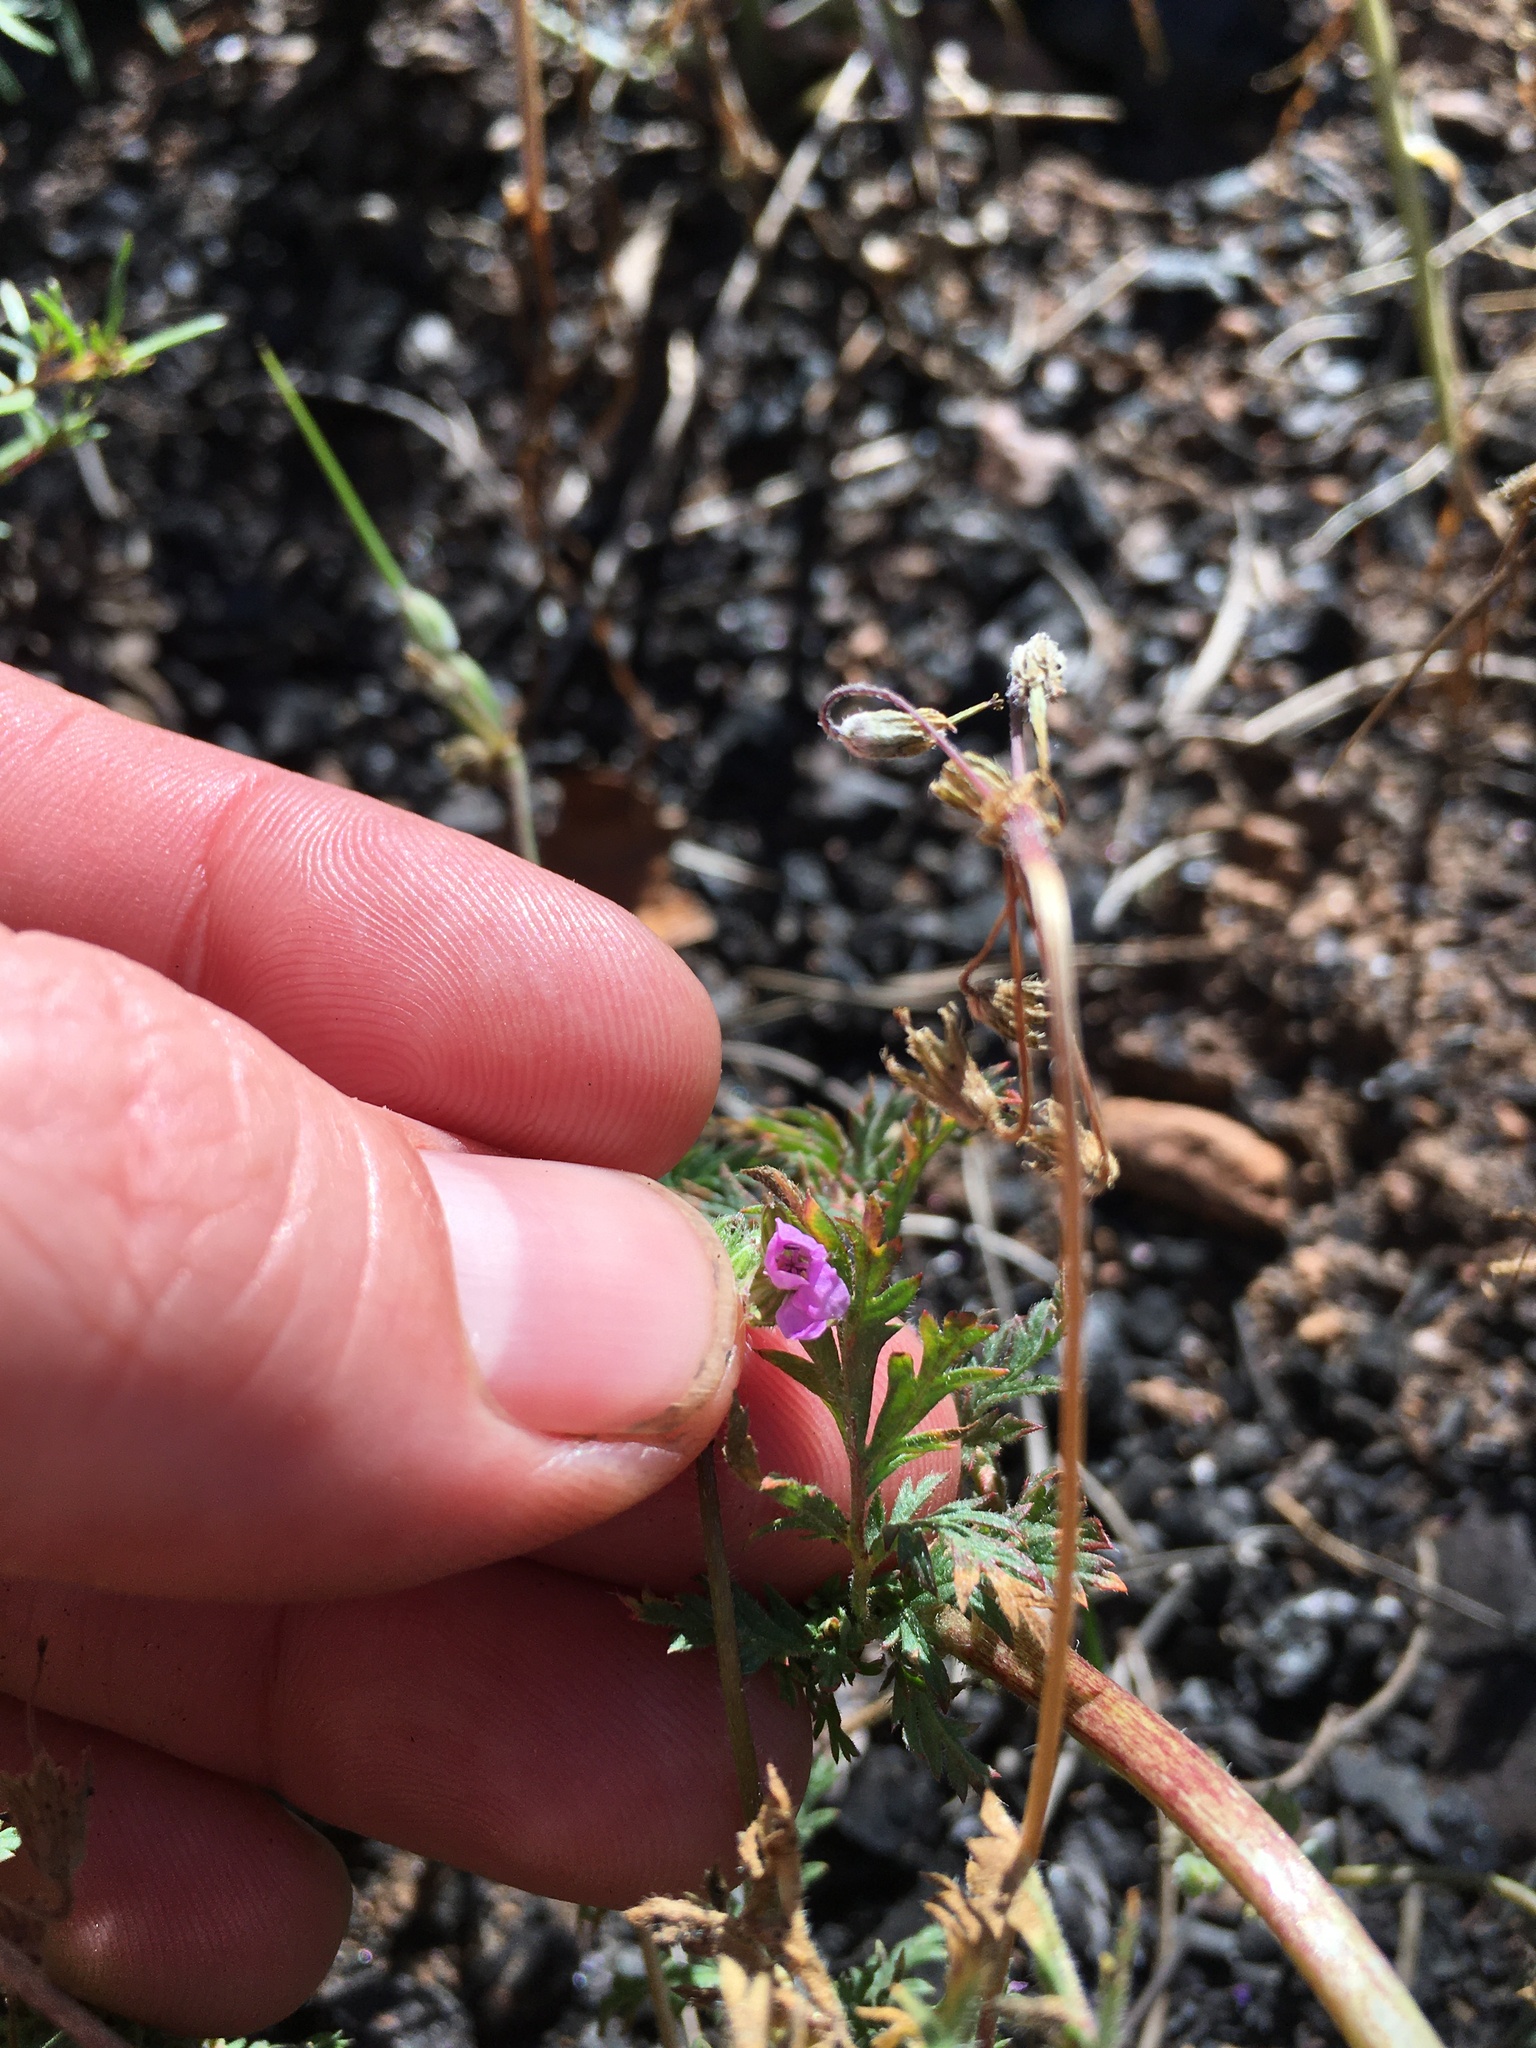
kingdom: Plantae
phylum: Tracheophyta
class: Magnoliopsida
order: Geraniales
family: Geraniaceae
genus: Erodium
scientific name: Erodium cicutarium
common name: Common stork's-bill
